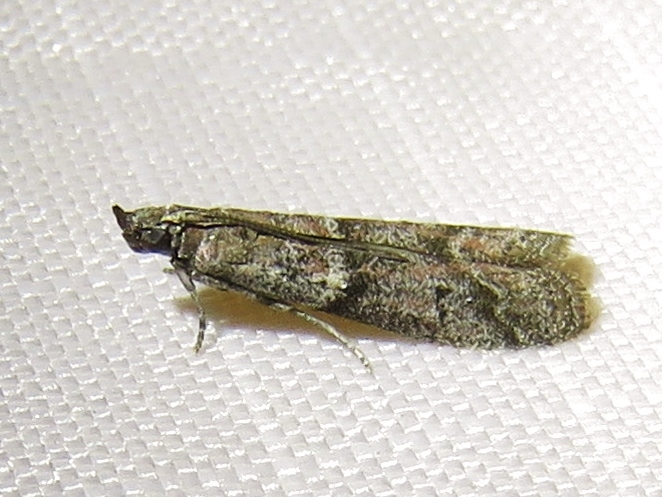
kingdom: Animalia
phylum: Arthropoda
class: Insecta
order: Lepidoptera
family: Pyralidae
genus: Ephestiodes
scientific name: Ephestiodes gilvescentella
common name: Moth
